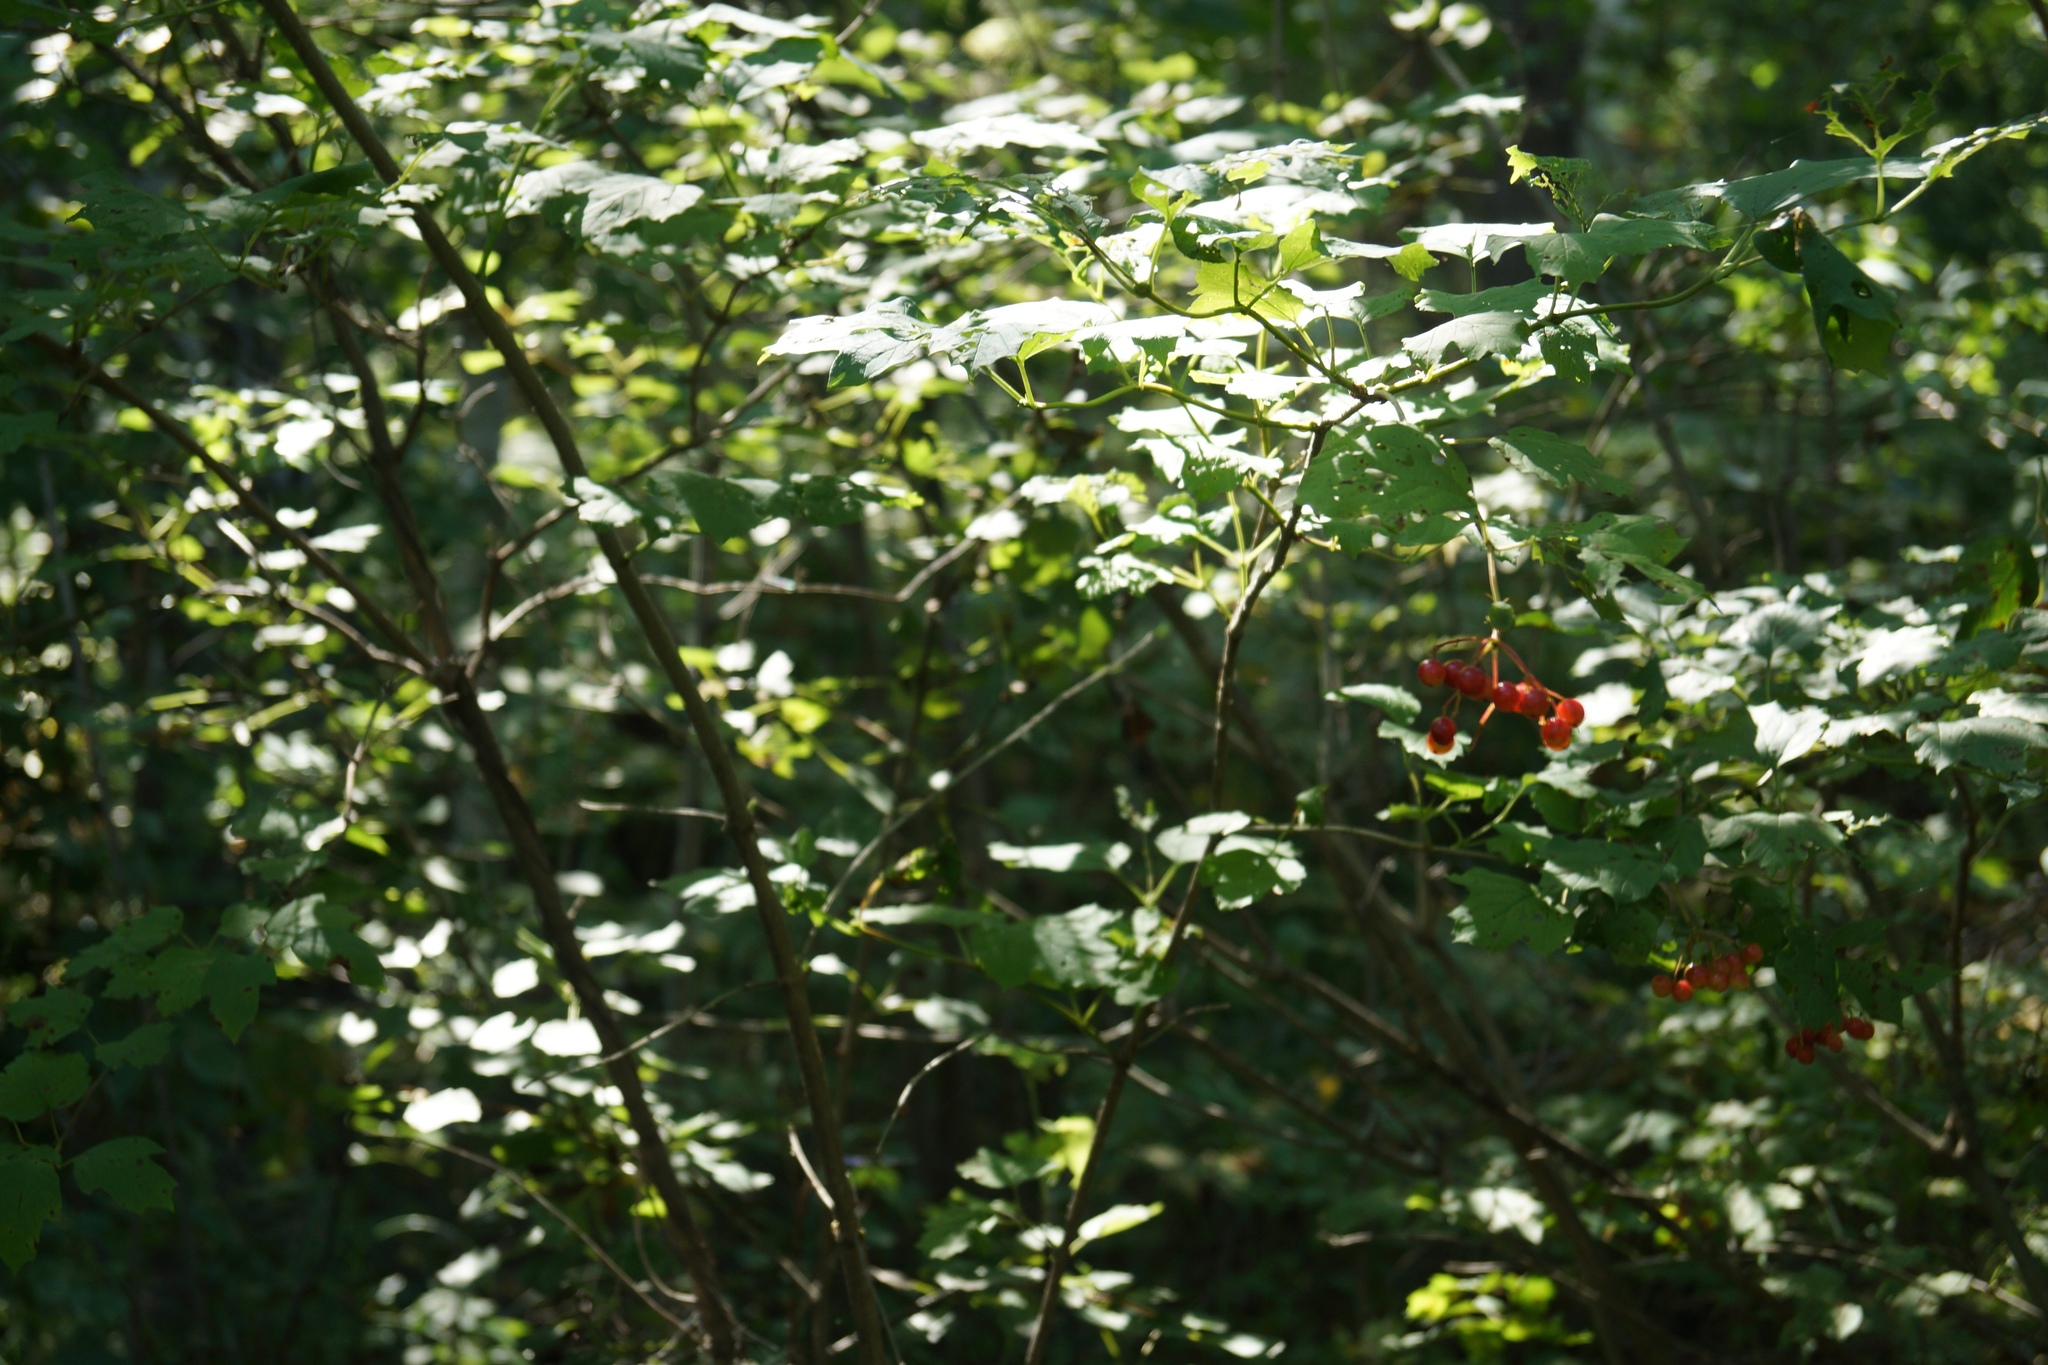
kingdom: Plantae
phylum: Tracheophyta
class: Magnoliopsida
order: Dipsacales
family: Viburnaceae
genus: Viburnum
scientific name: Viburnum opulus
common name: Guelder-rose
